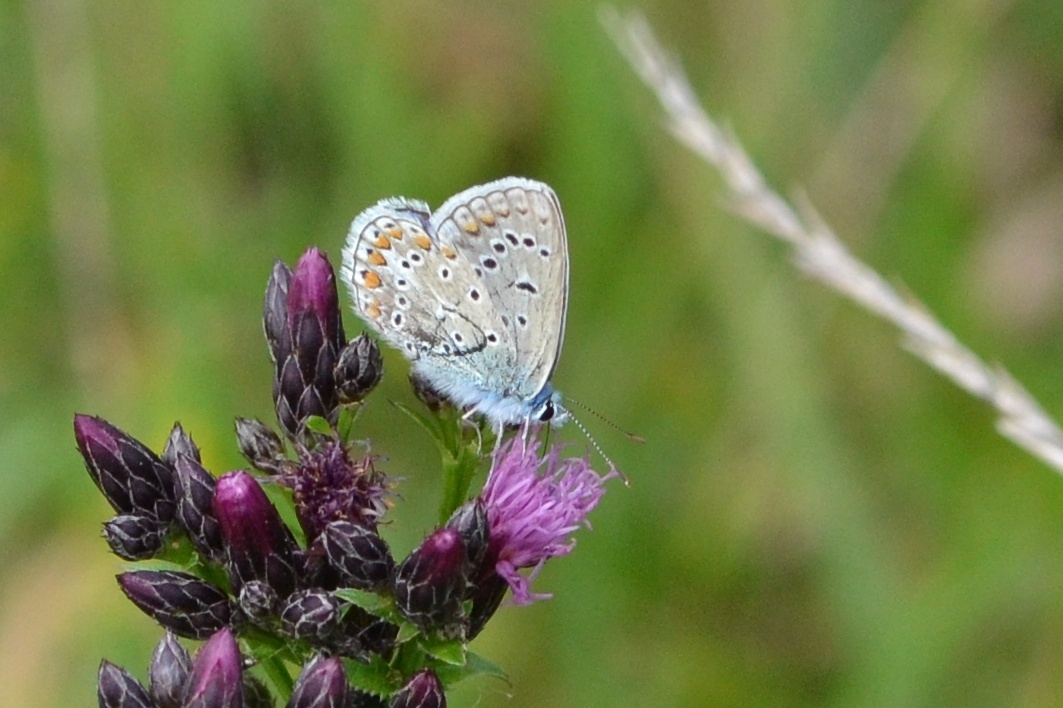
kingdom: Animalia
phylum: Arthropoda
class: Insecta
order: Lepidoptera
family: Lycaenidae
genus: Polyommatus
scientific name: Polyommatus icarus
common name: Common blue
